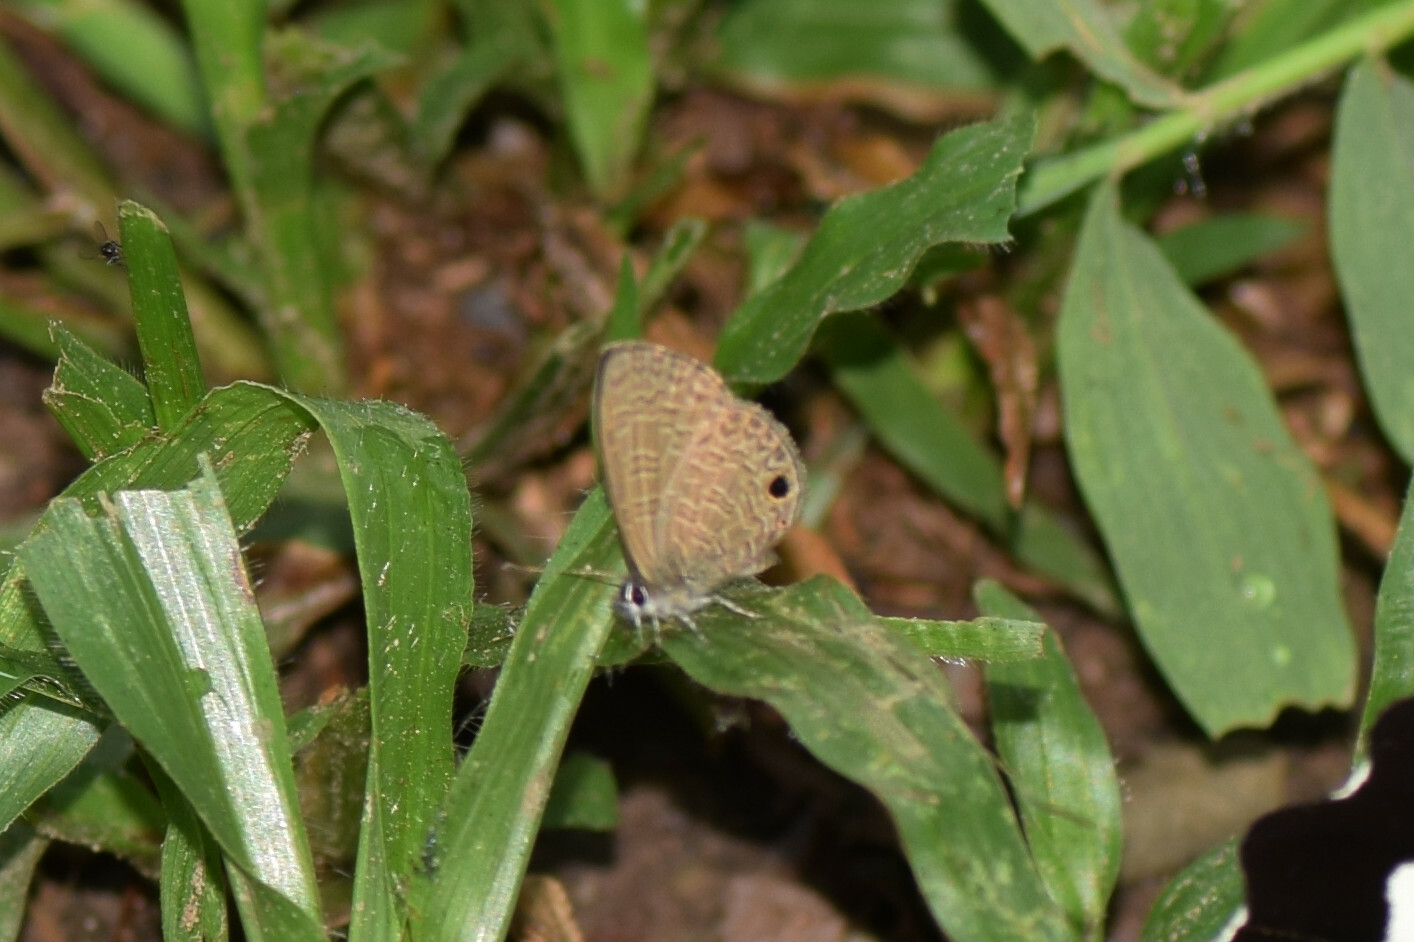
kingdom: Animalia
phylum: Arthropoda
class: Insecta
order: Lepidoptera
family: Lycaenidae
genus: Prosotas
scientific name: Prosotas dubiosa
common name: Tailless lineblue
